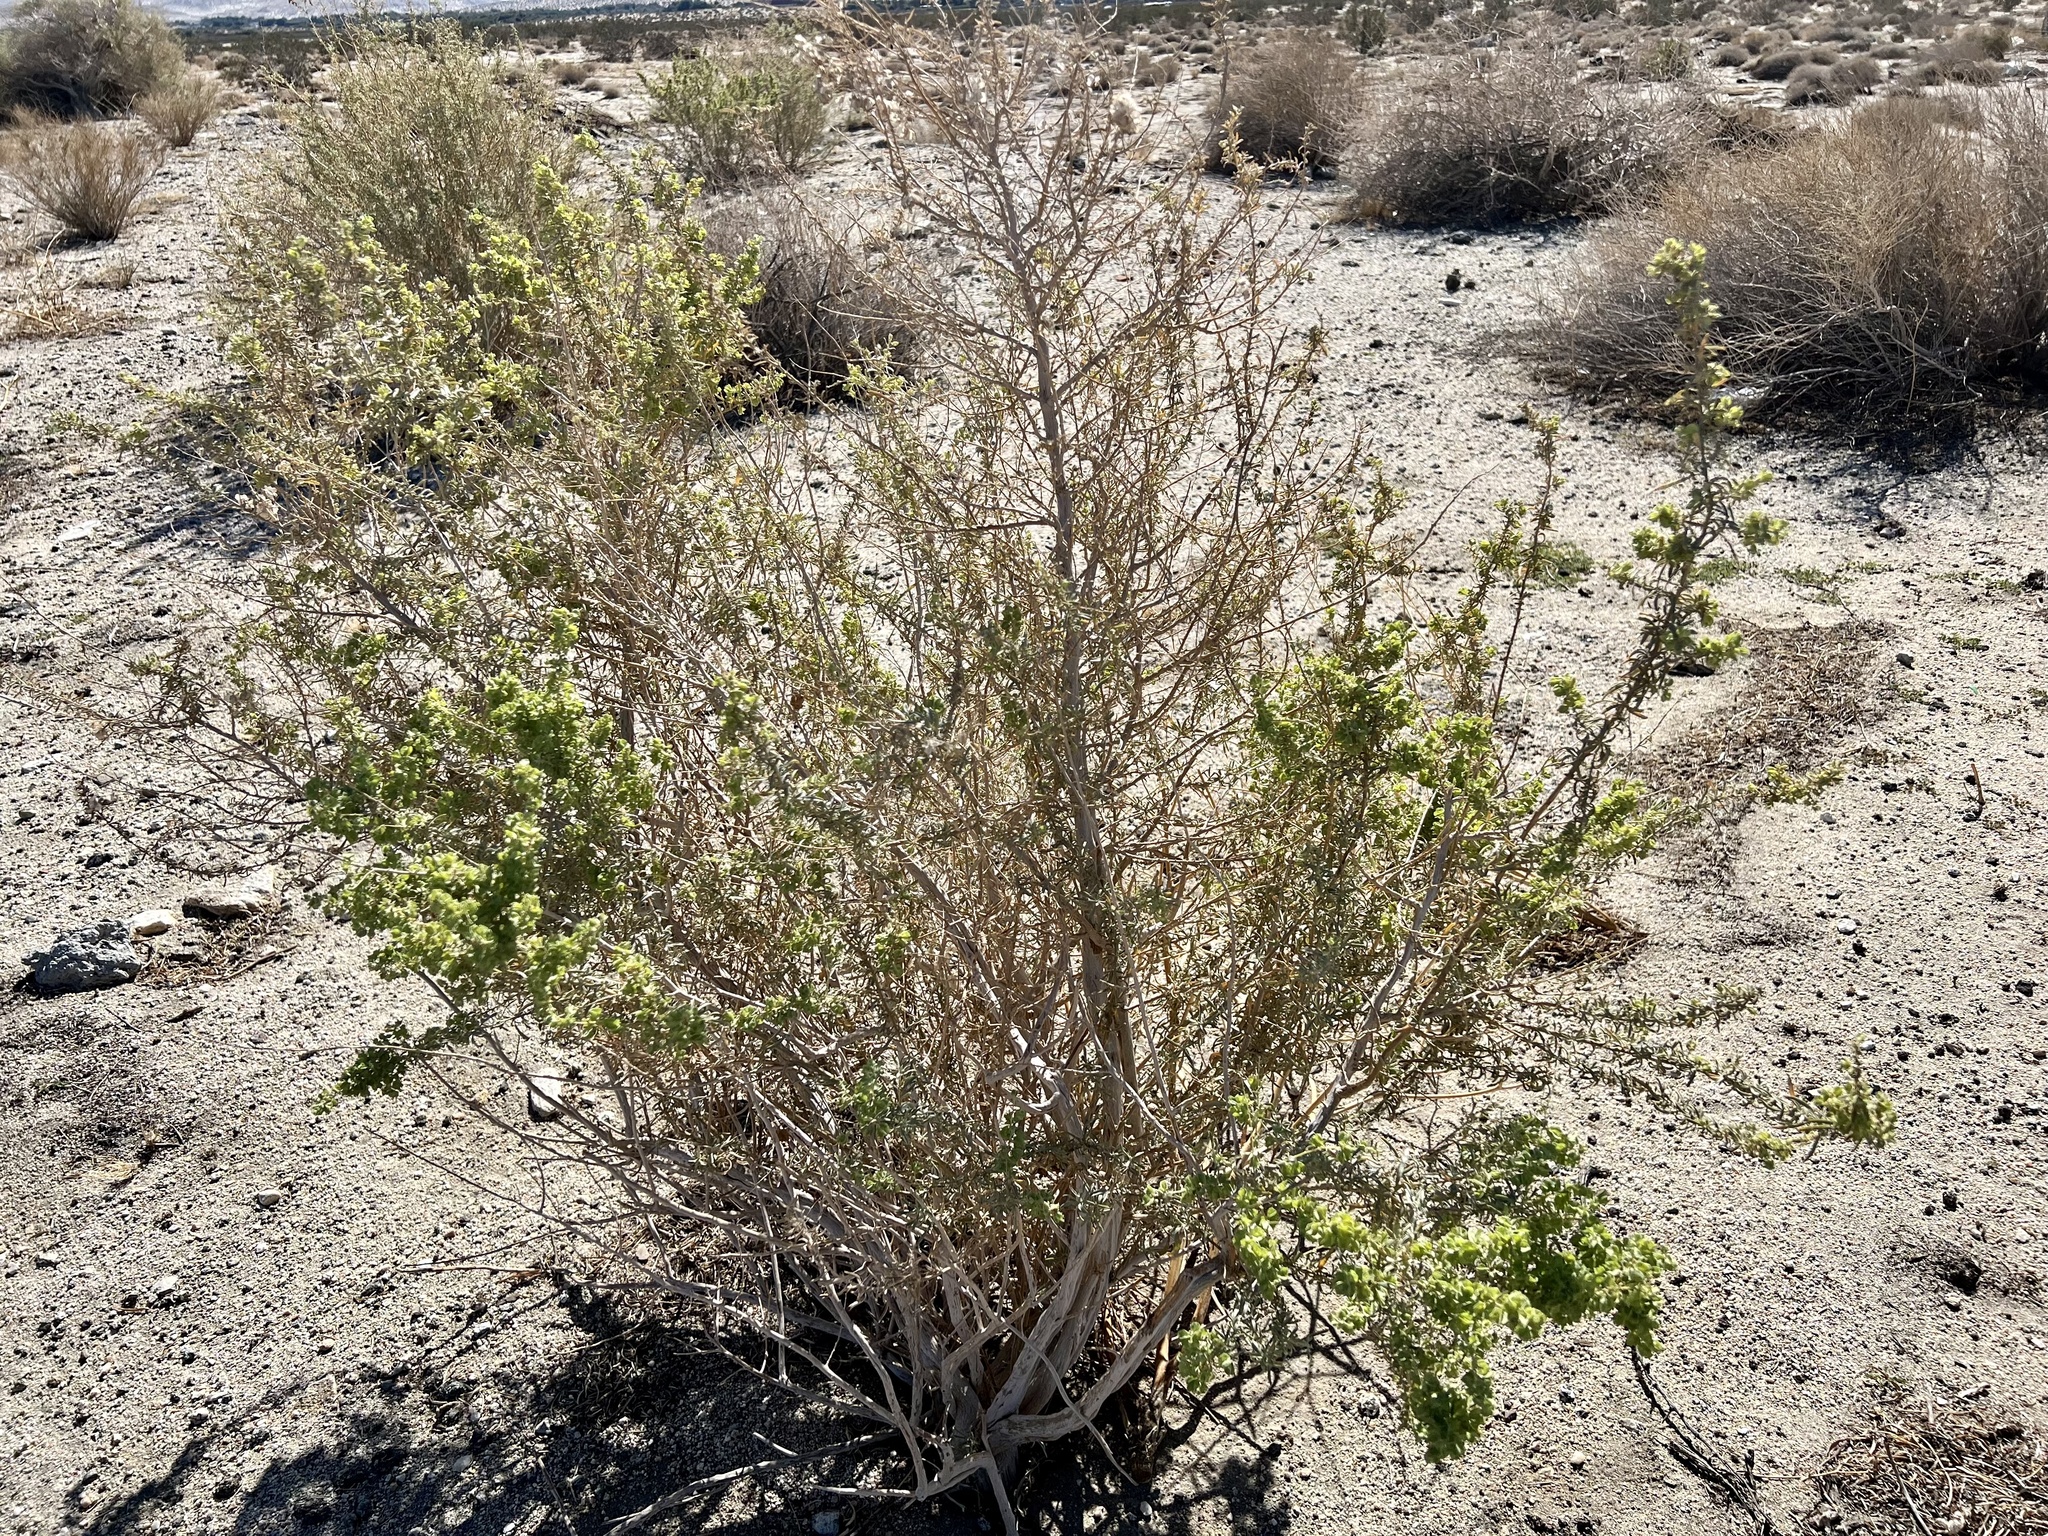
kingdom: Plantae
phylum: Tracheophyta
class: Magnoliopsida
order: Caryophyllales
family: Amaranthaceae
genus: Atriplex
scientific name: Atriplex canescens
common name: Four-wing saltbush
